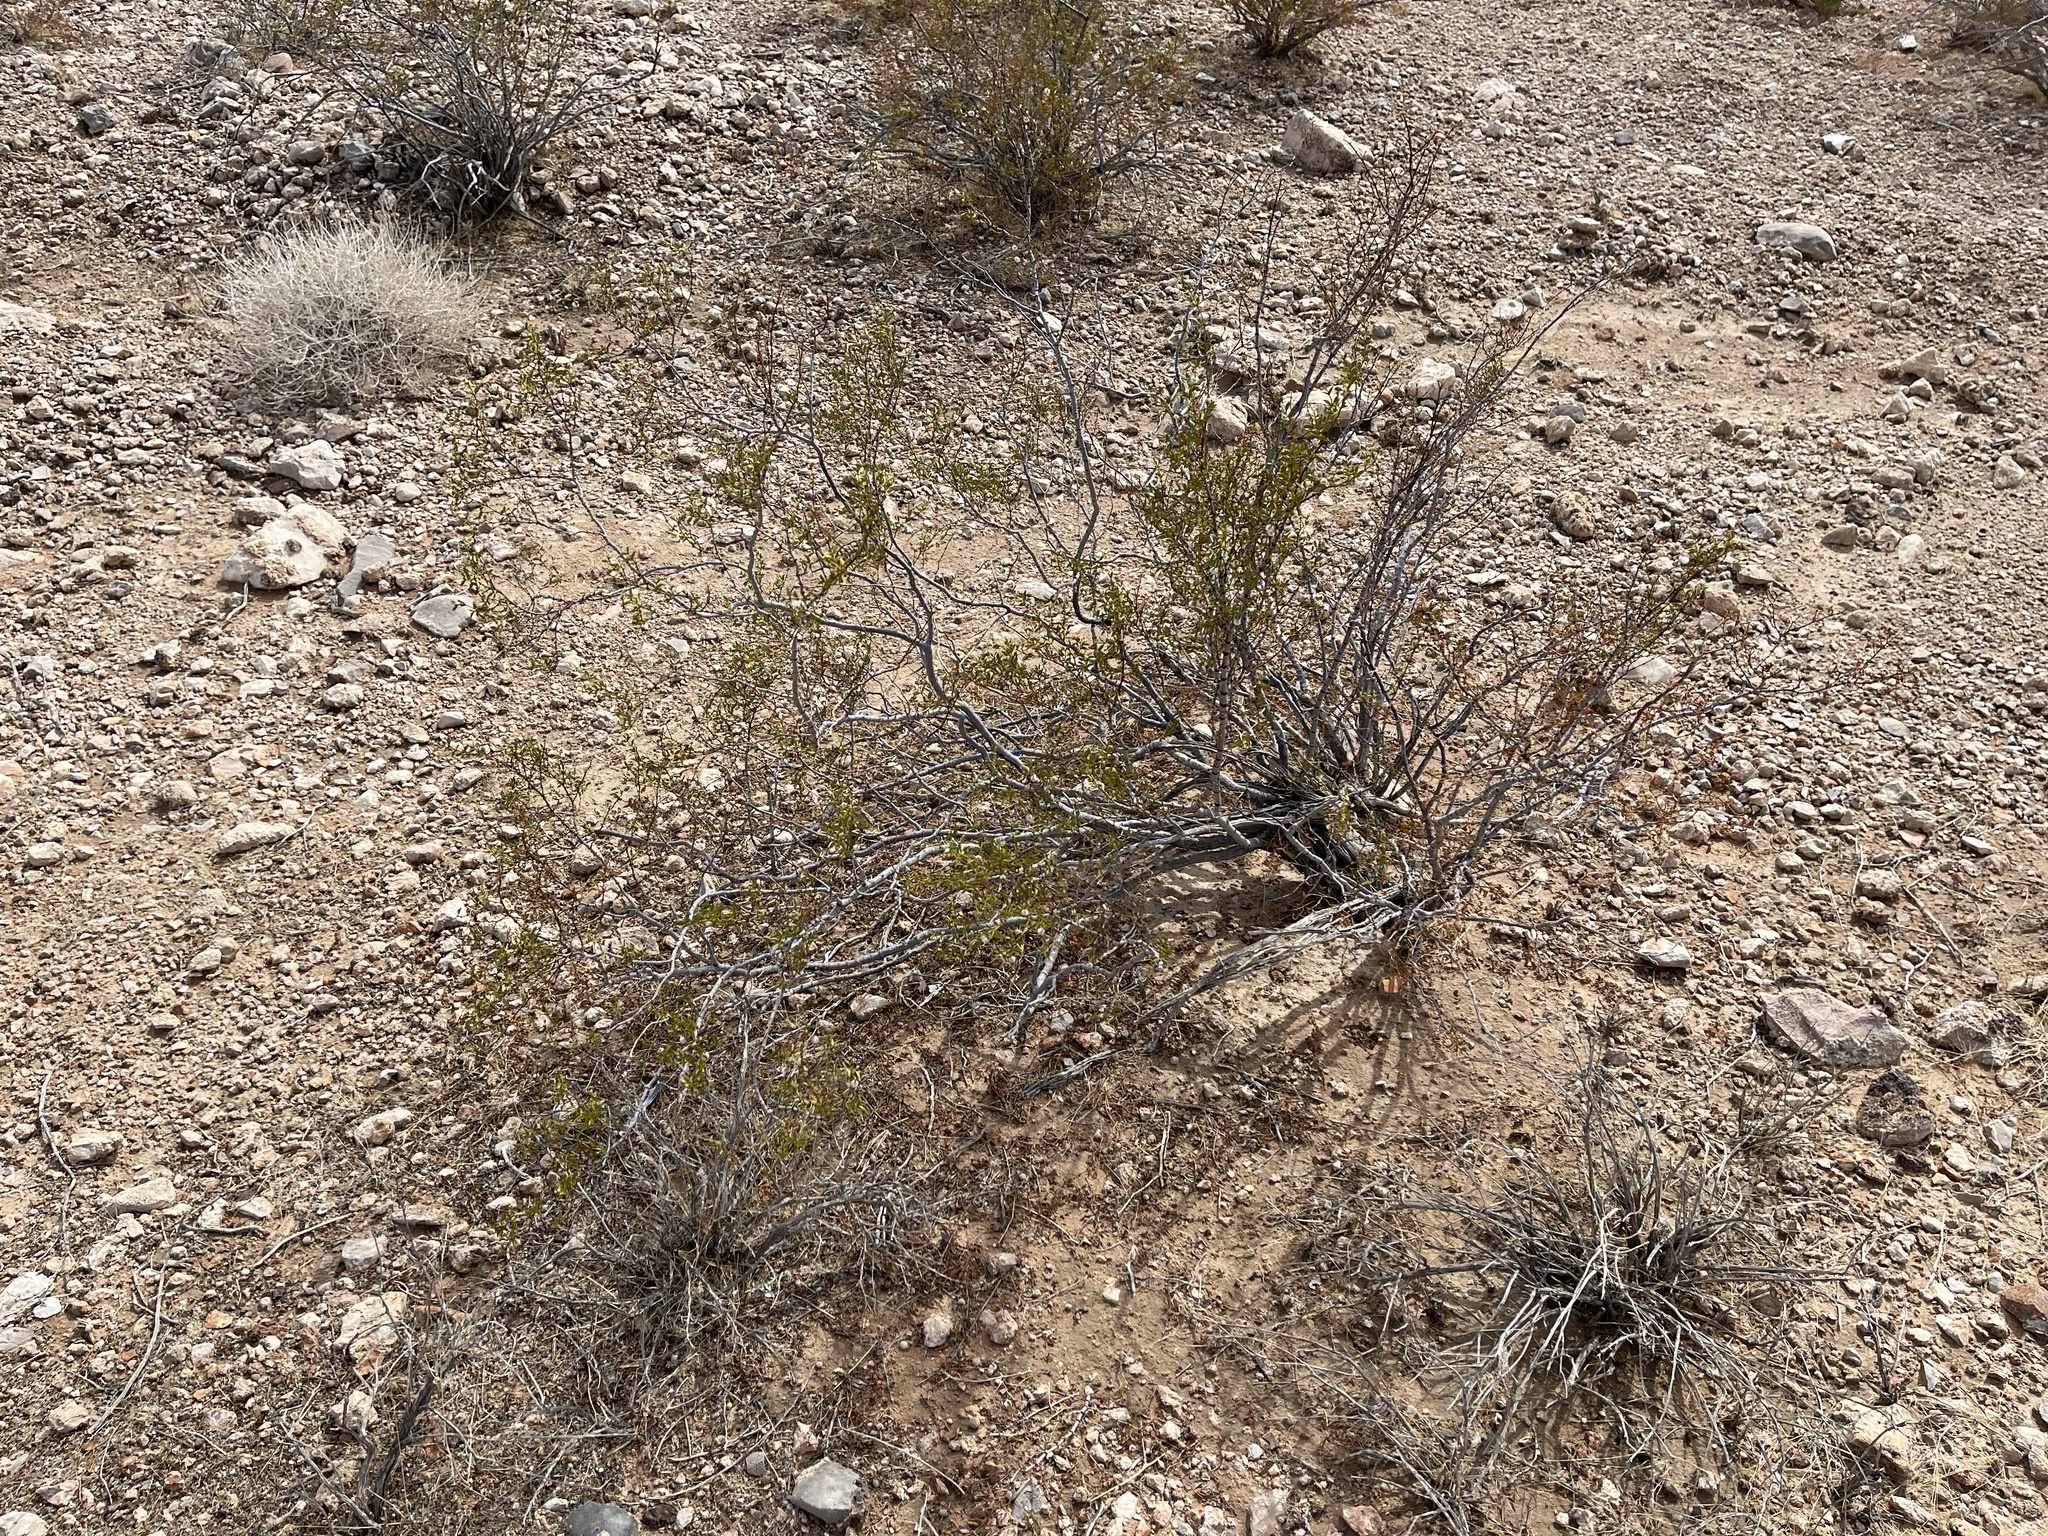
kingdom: Plantae
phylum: Tracheophyta
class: Magnoliopsida
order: Zygophyllales
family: Zygophyllaceae
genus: Larrea
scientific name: Larrea tridentata
